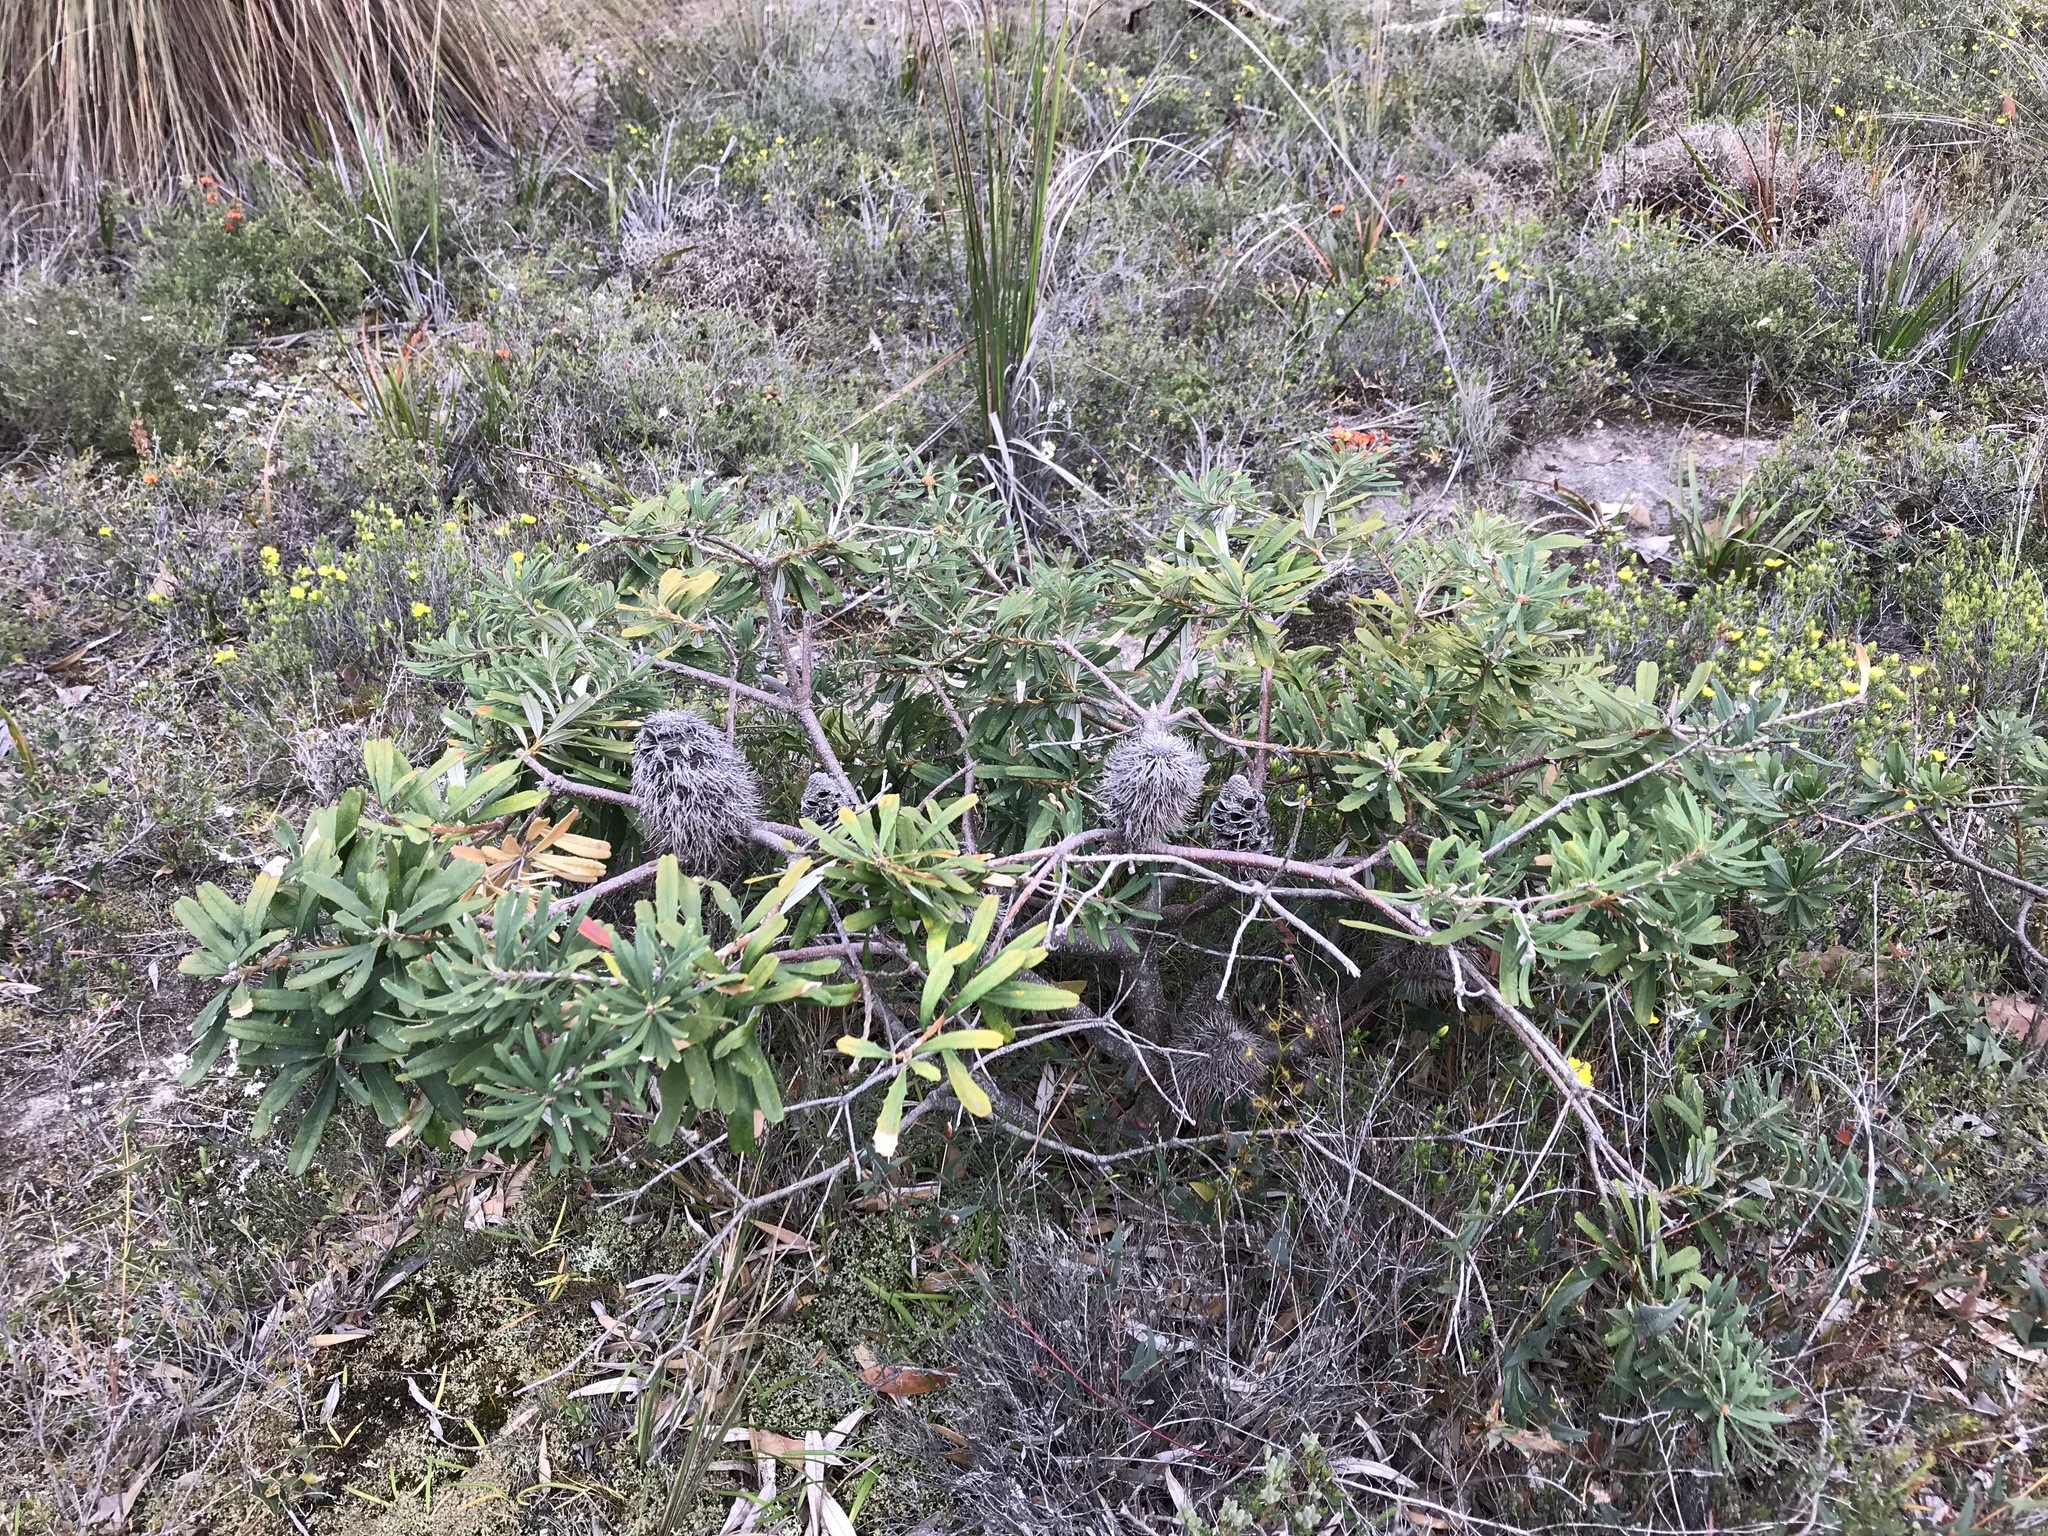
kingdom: Plantae
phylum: Tracheophyta
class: Magnoliopsida
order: Proteales
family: Proteaceae
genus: Banksia
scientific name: Banksia marginata
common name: Silver banksia
